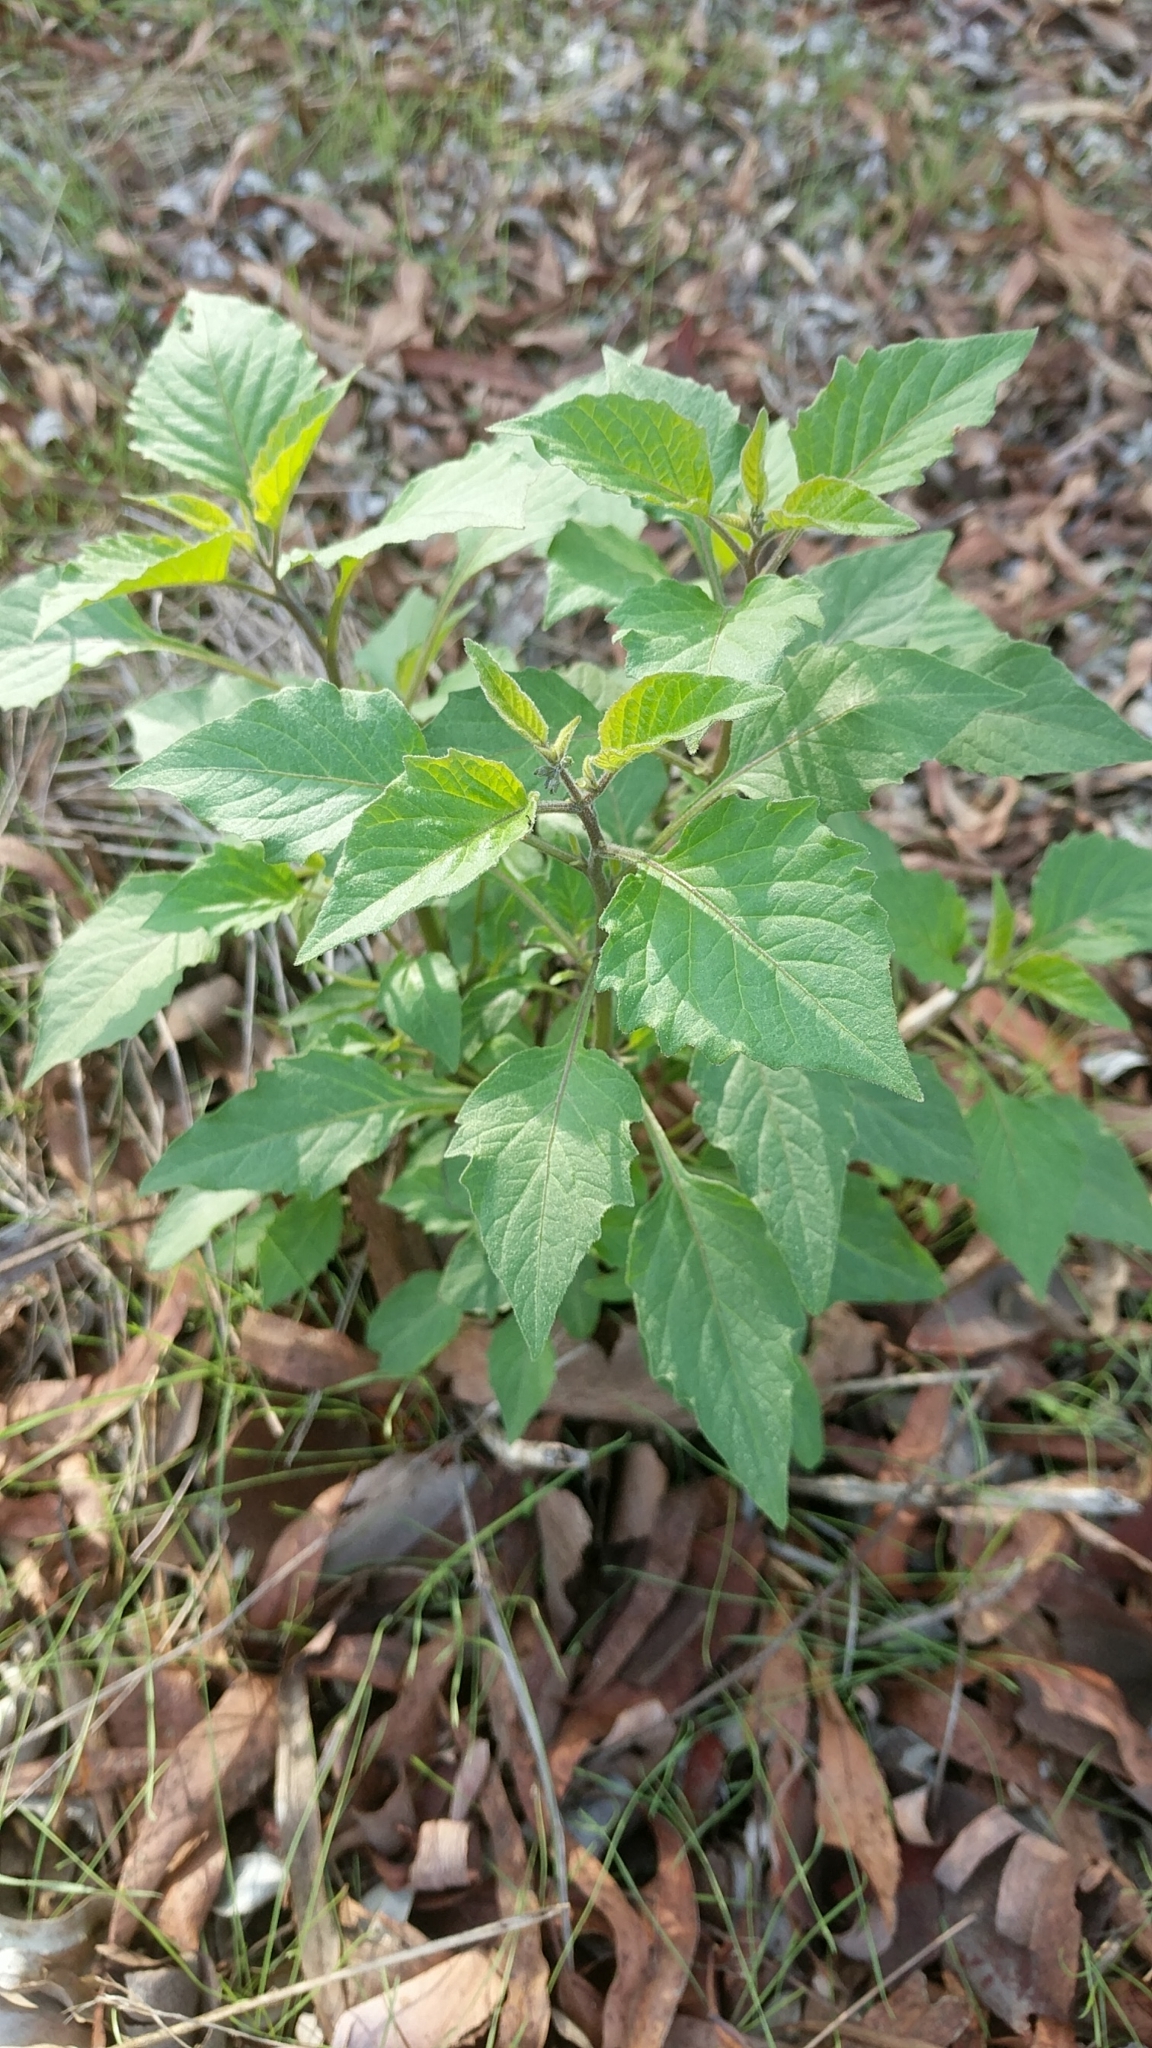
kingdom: Plantae
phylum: Tracheophyta
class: Magnoliopsida
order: Solanales
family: Solanaceae
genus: Solanum
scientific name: Solanum nigrum
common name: Black nightshade
